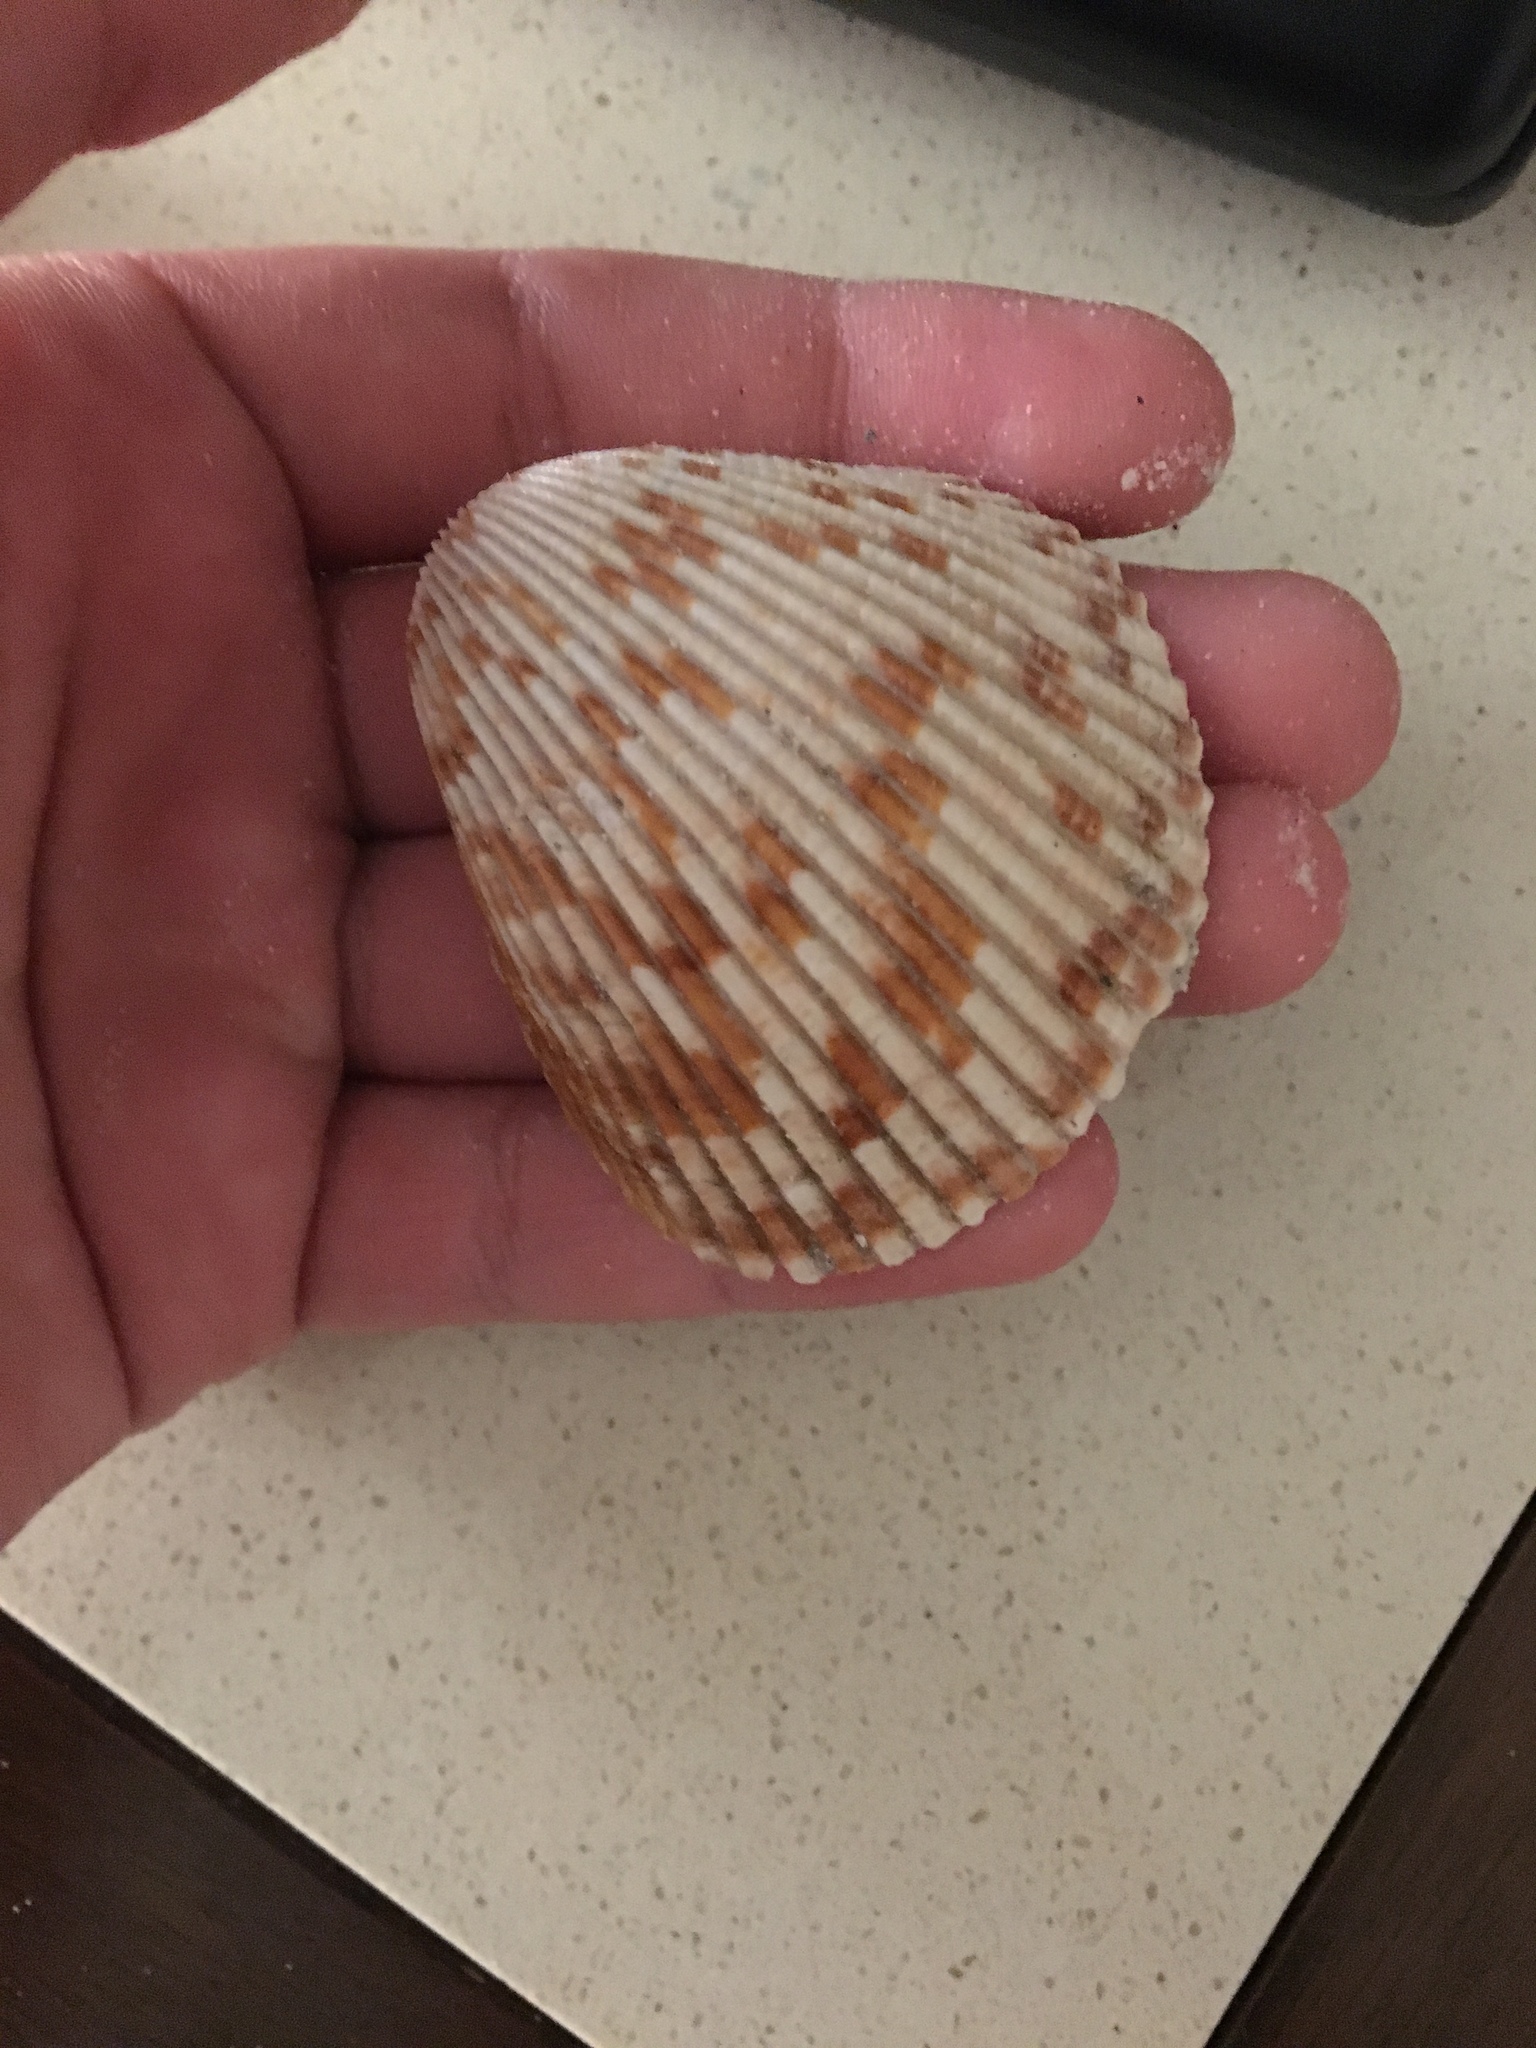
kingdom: Animalia
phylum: Mollusca
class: Bivalvia
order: Cardiida
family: Cardiidae
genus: Dinocardium
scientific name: Dinocardium robustum
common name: Atlantic giant cockle
